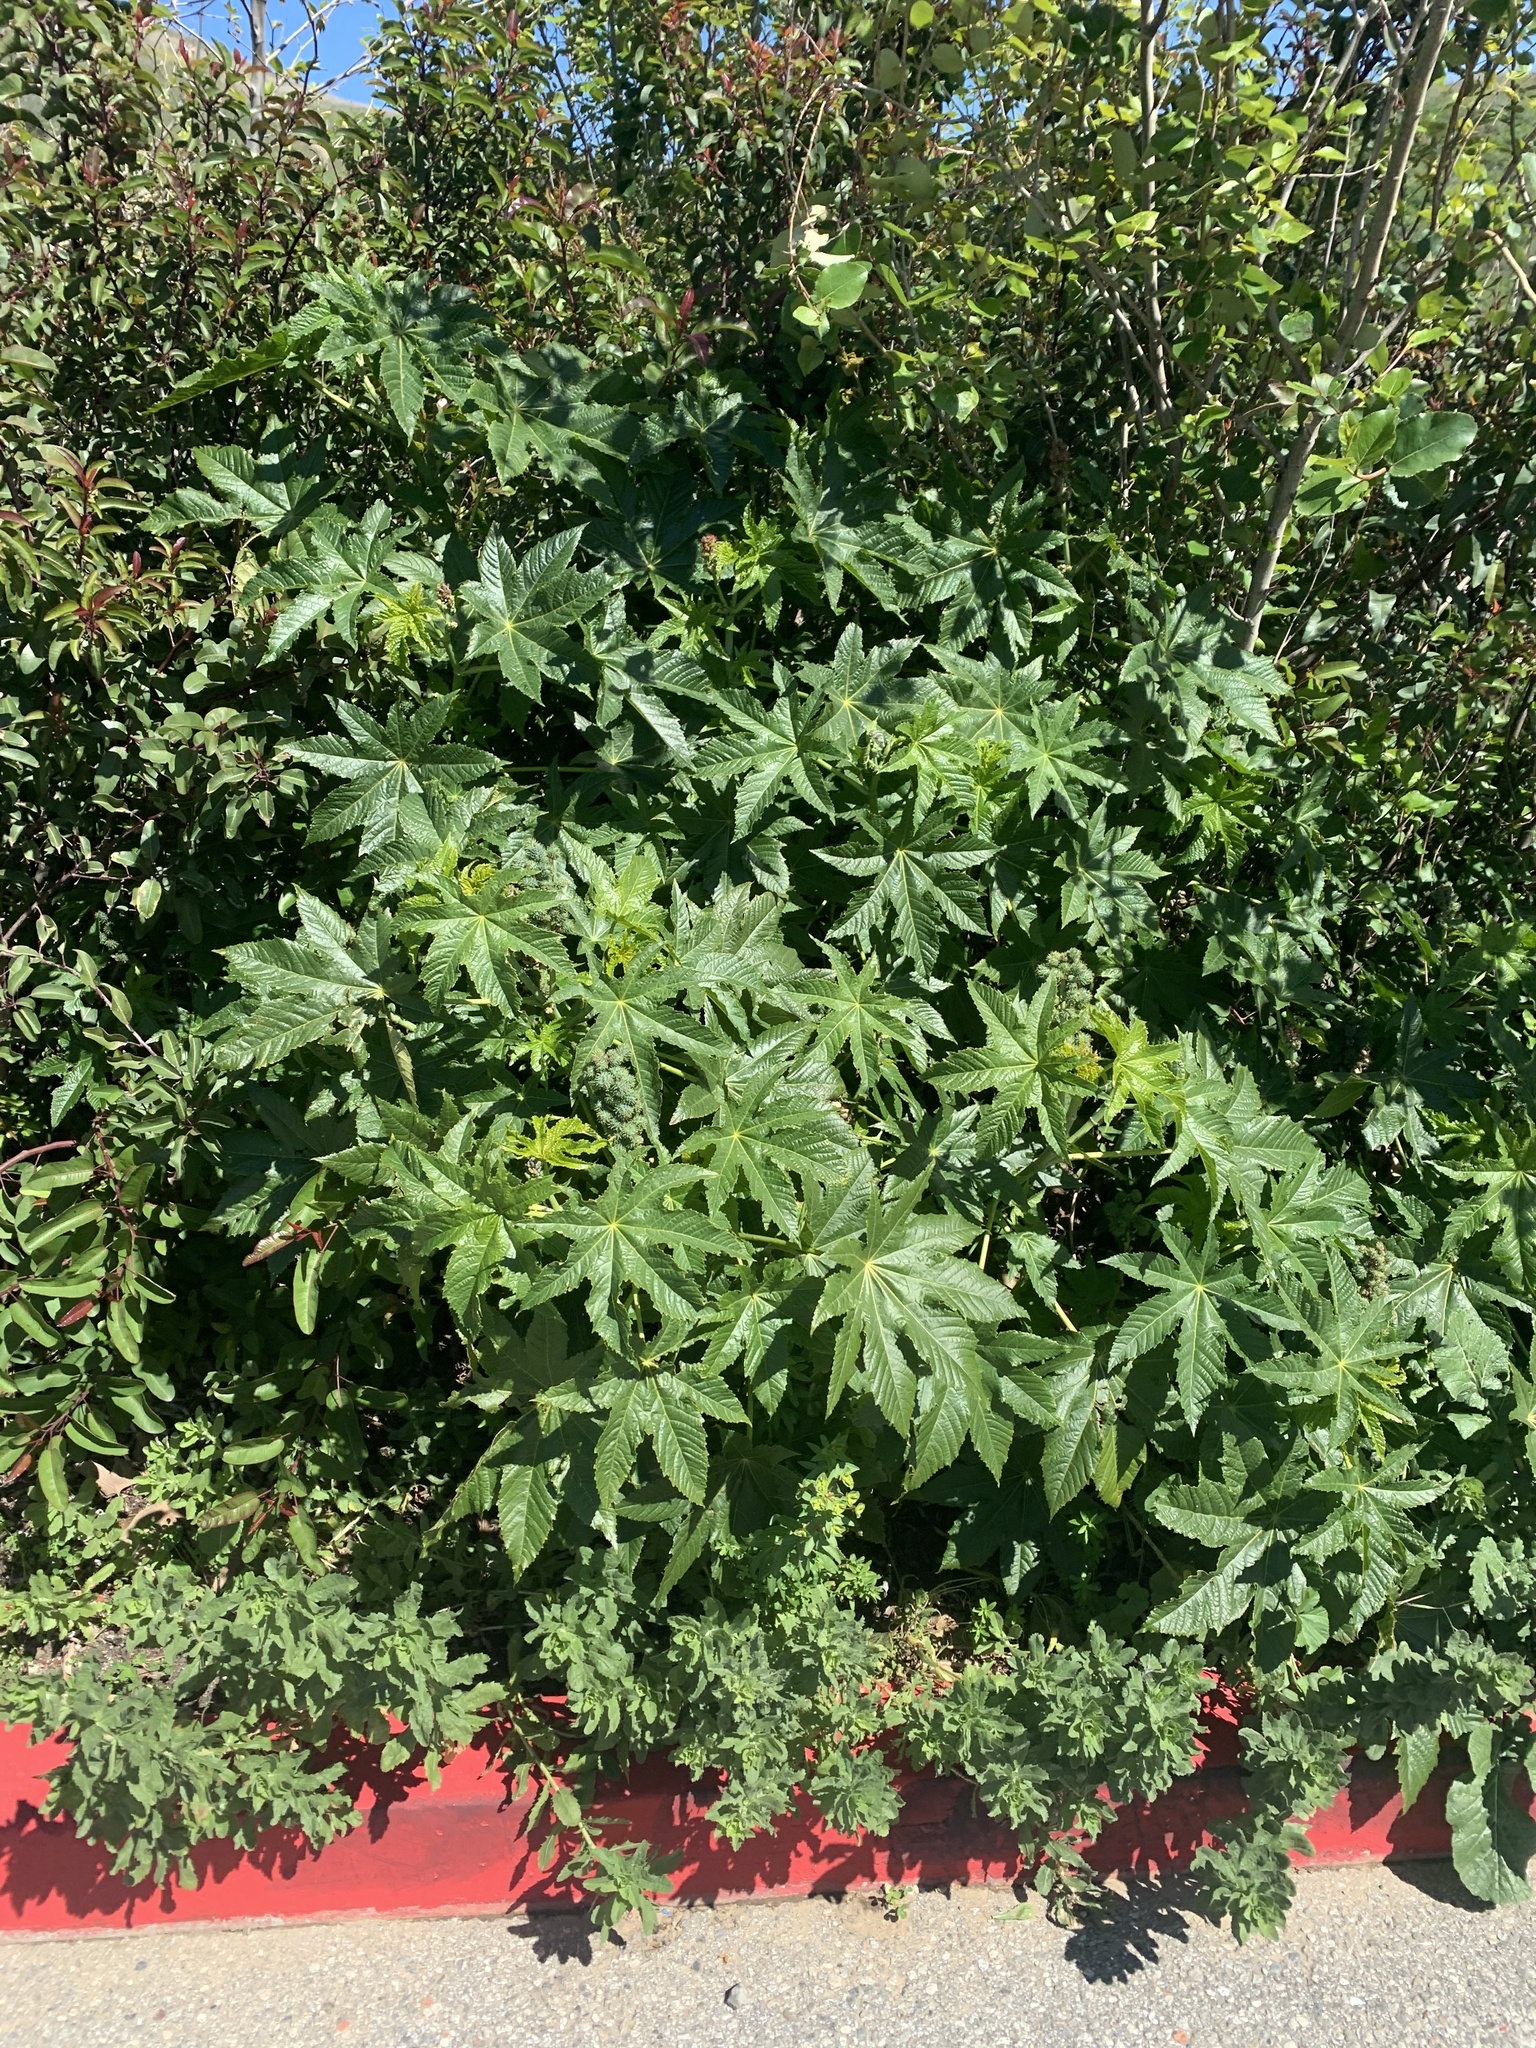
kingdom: Plantae
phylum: Tracheophyta
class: Magnoliopsida
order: Malpighiales
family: Euphorbiaceae
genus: Ricinus
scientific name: Ricinus communis
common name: Castor-oil-plant
